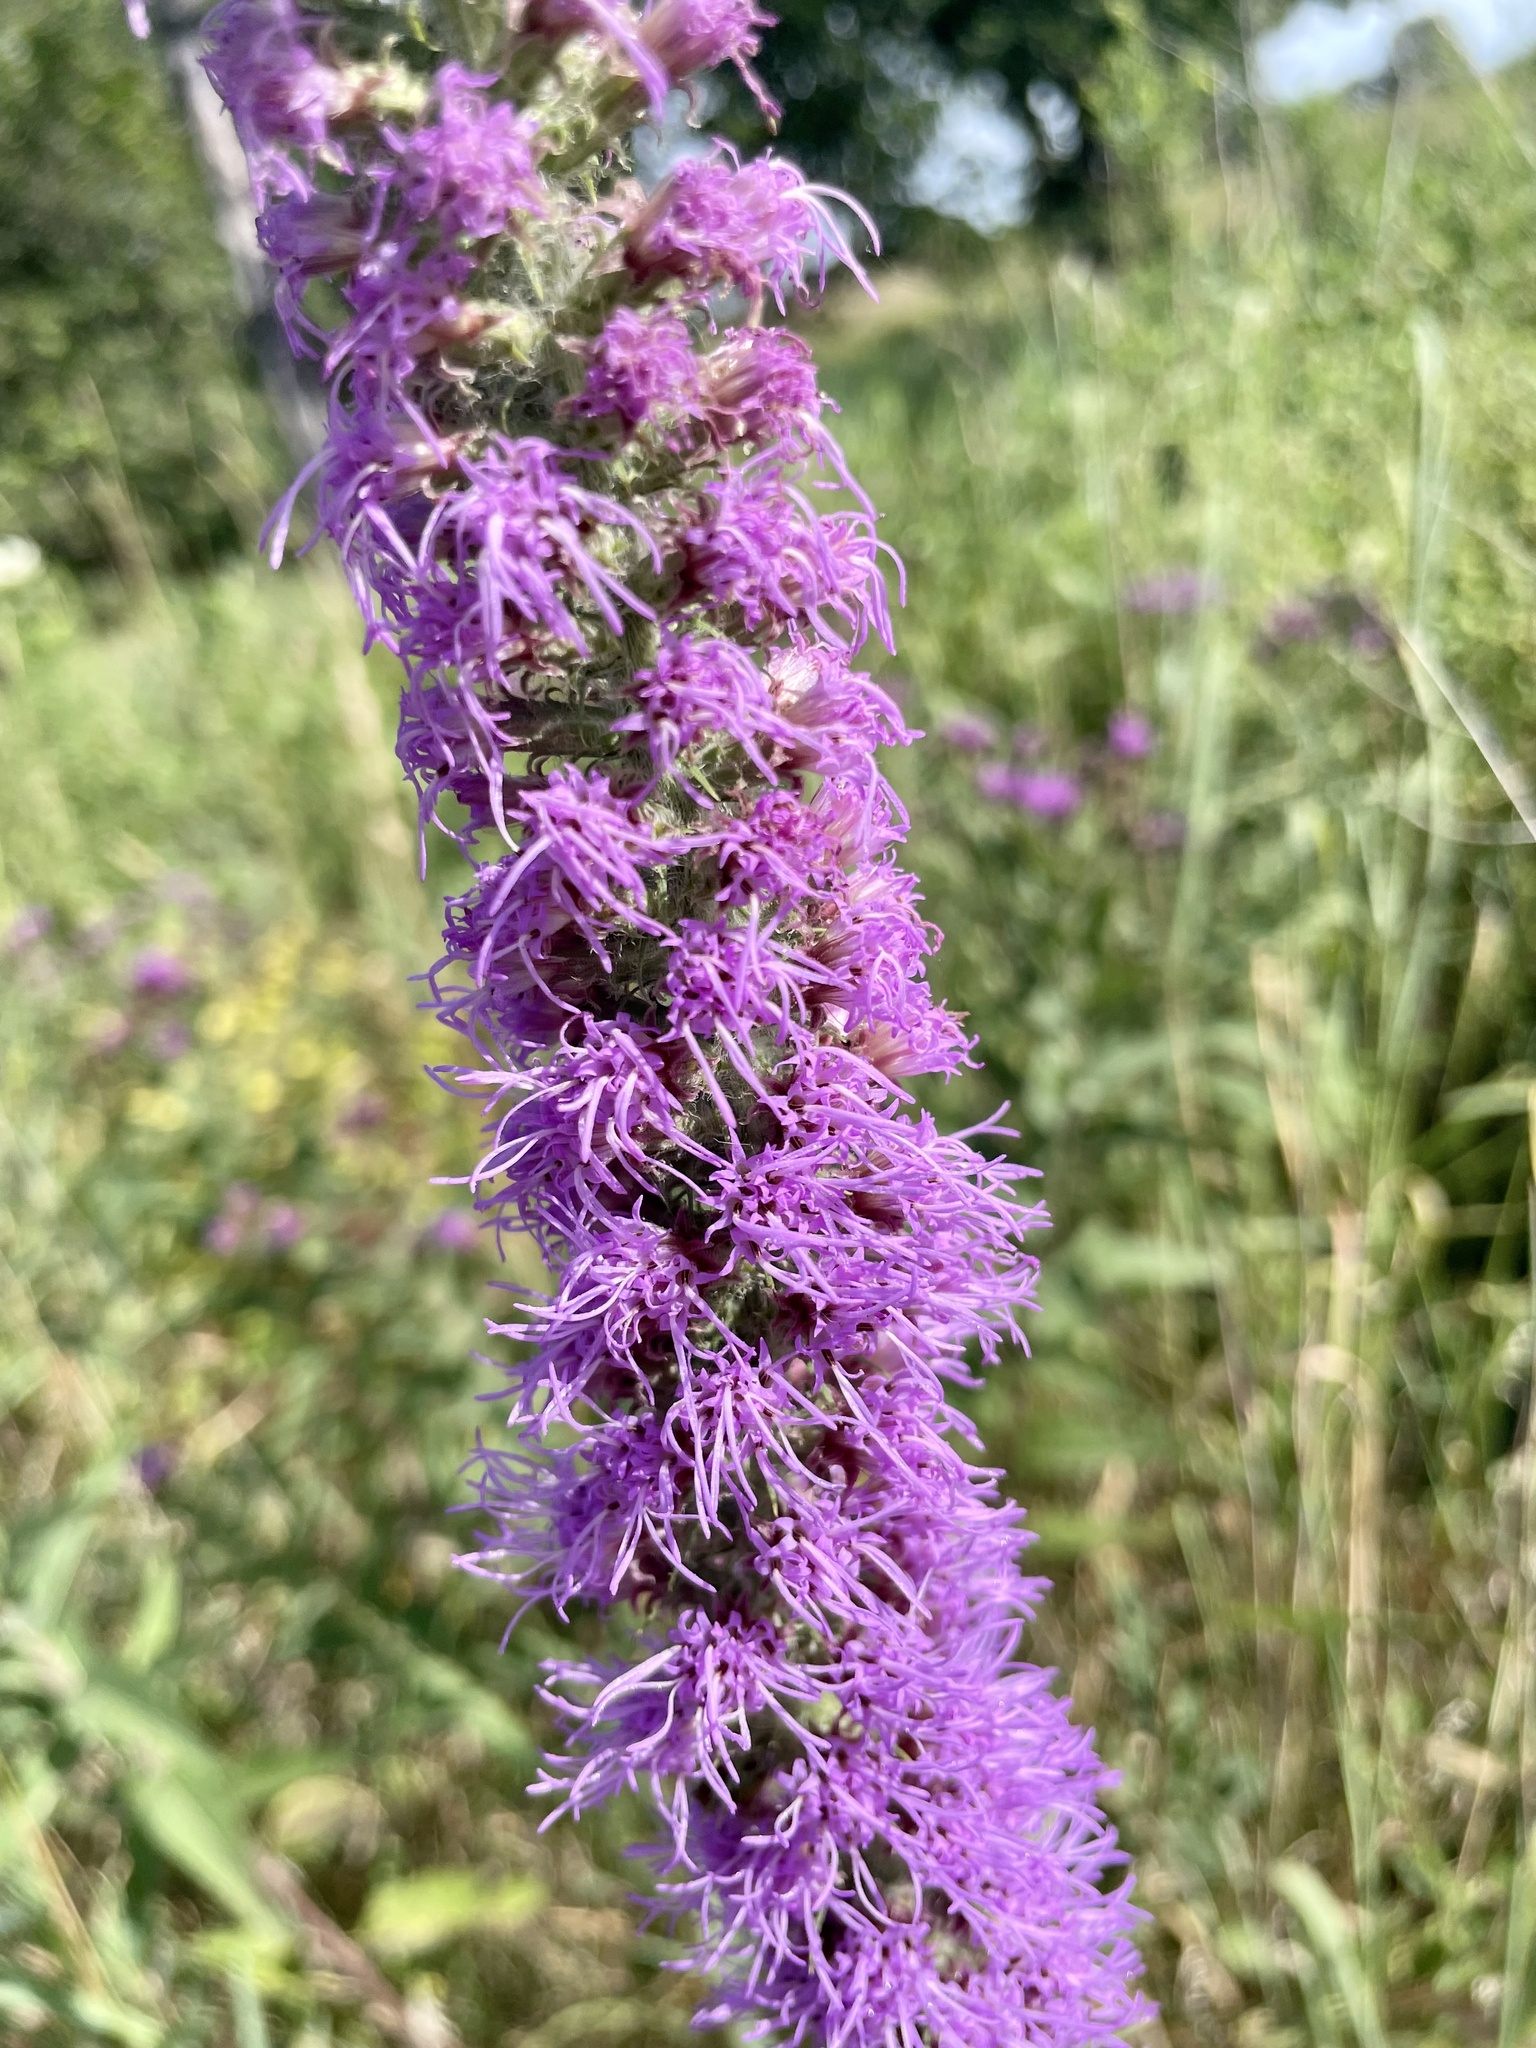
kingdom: Plantae
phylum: Tracheophyta
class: Magnoliopsida
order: Asterales
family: Asteraceae
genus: Liatris
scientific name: Liatris pycnostachya
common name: Cattail gayfeather
